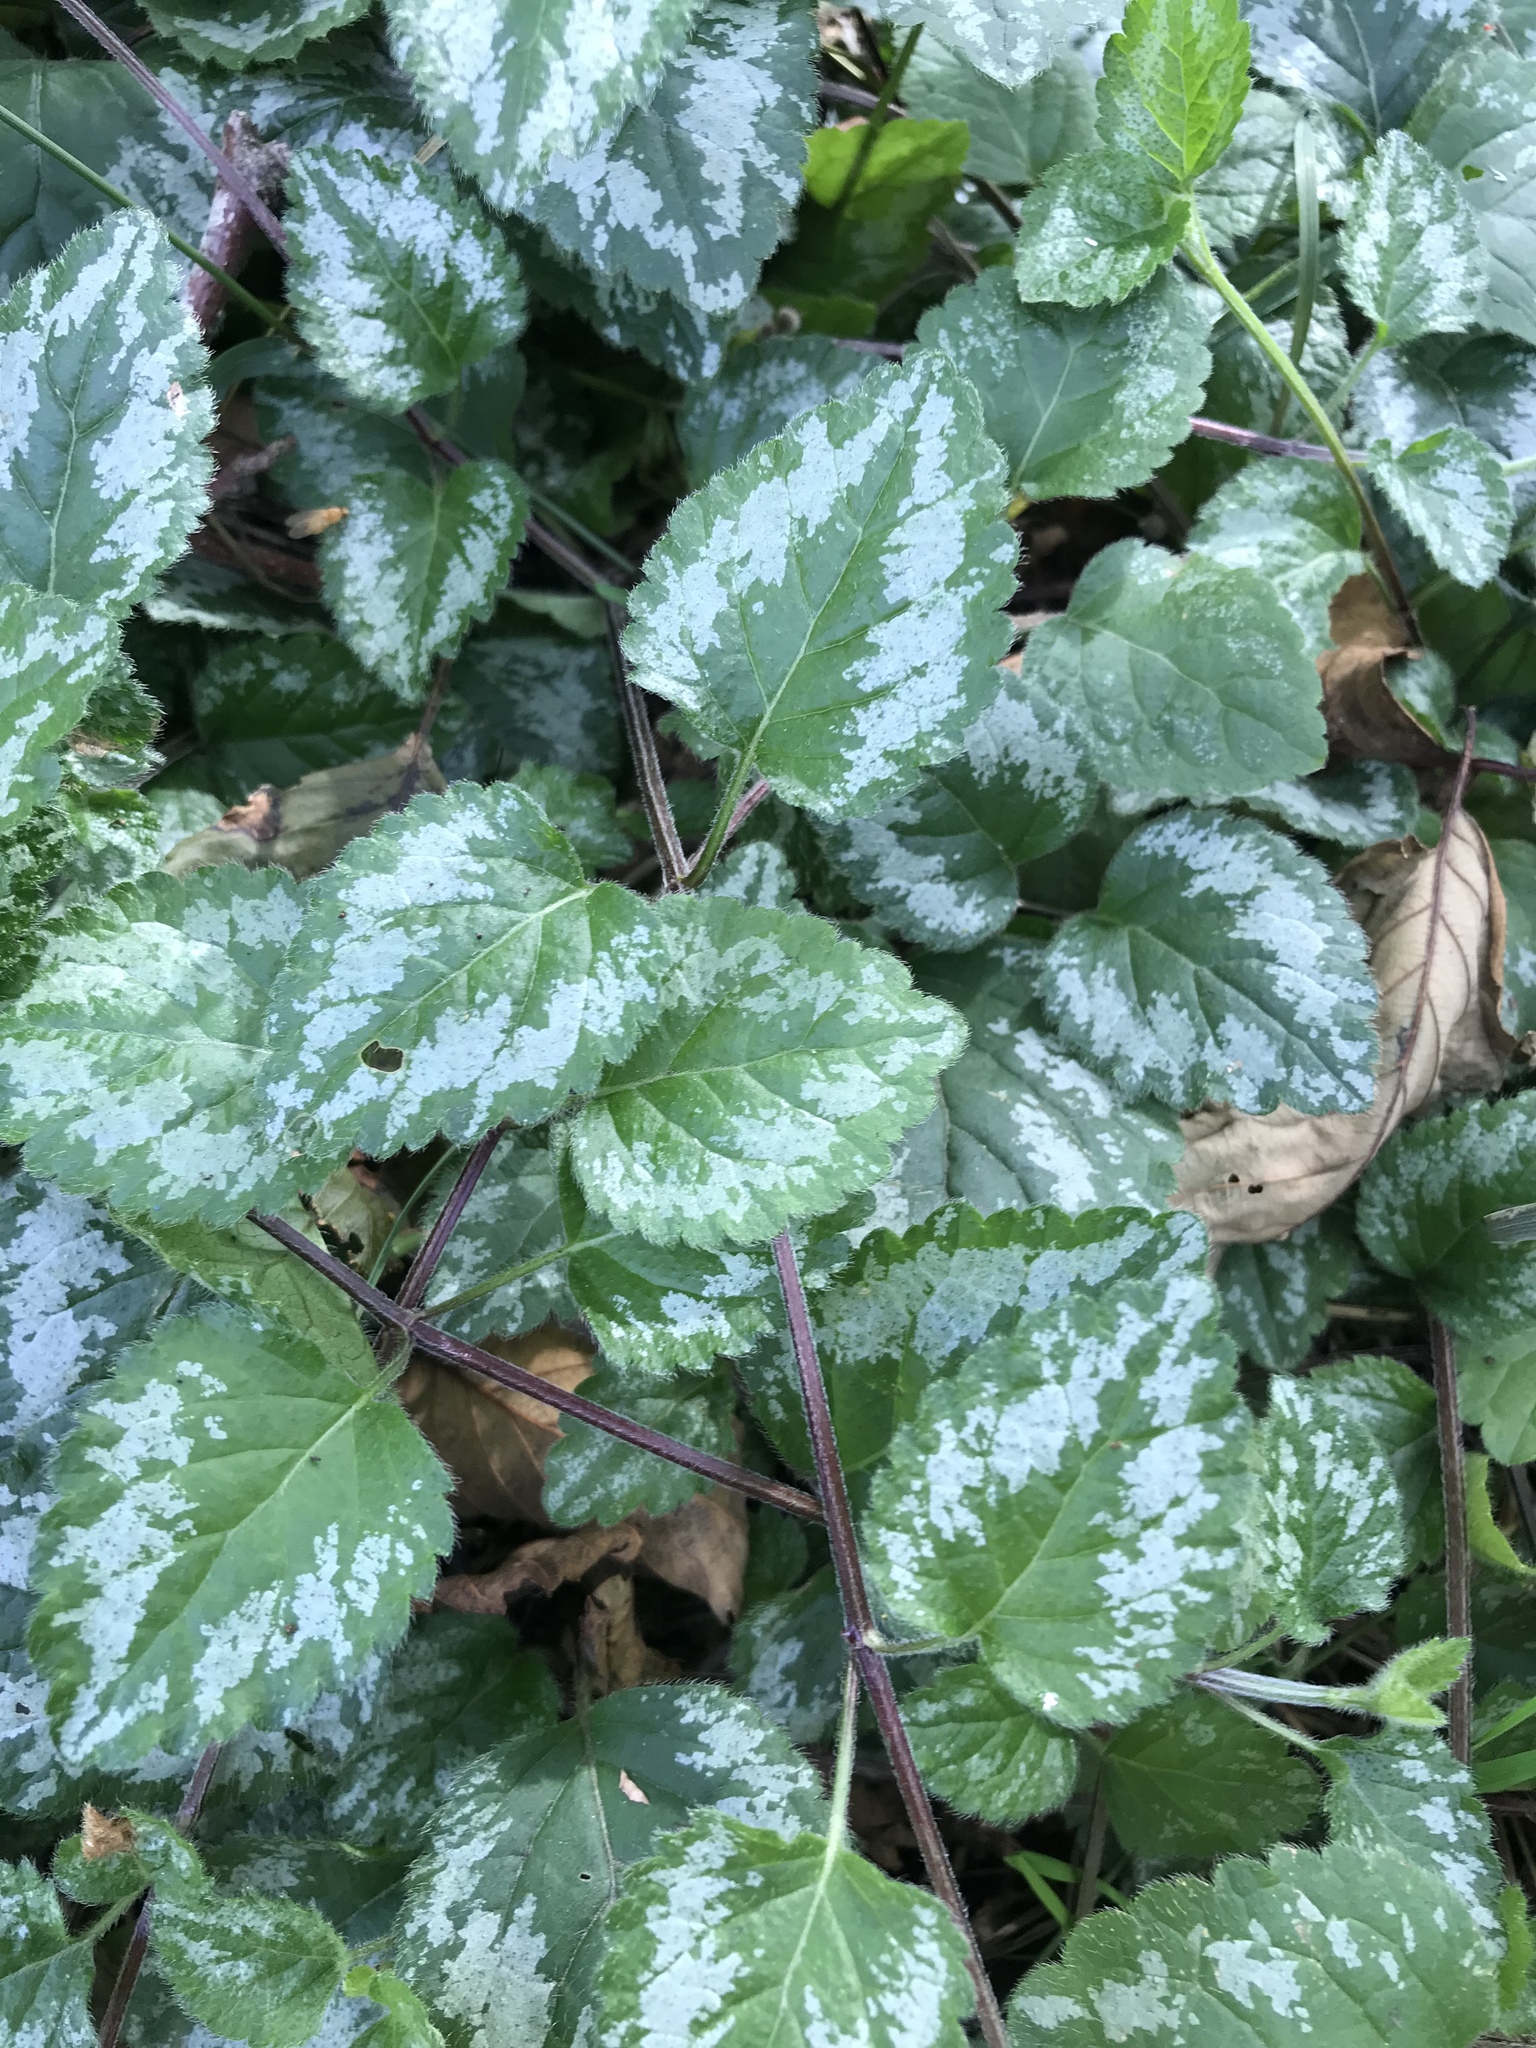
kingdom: Plantae
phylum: Tracheophyta
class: Magnoliopsida
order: Lamiales
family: Lamiaceae
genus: Lamium
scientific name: Lamium galeobdolon
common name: Yellow archangel
